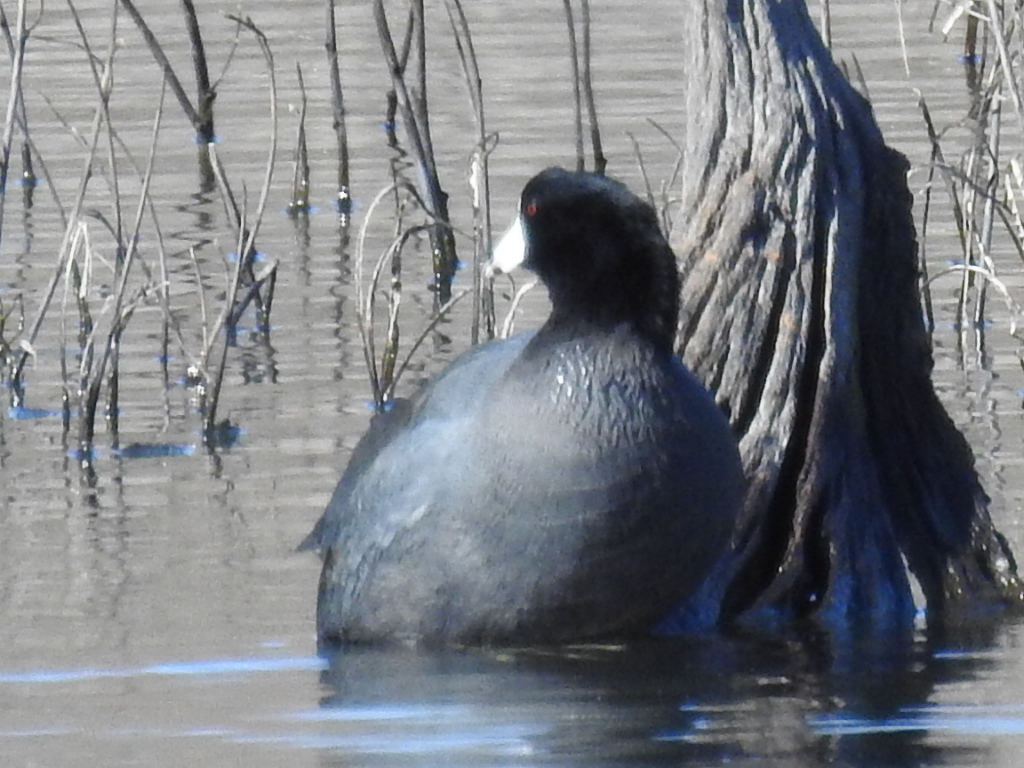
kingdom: Animalia
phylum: Chordata
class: Aves
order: Gruiformes
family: Rallidae
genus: Fulica
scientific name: Fulica americana
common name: American coot
